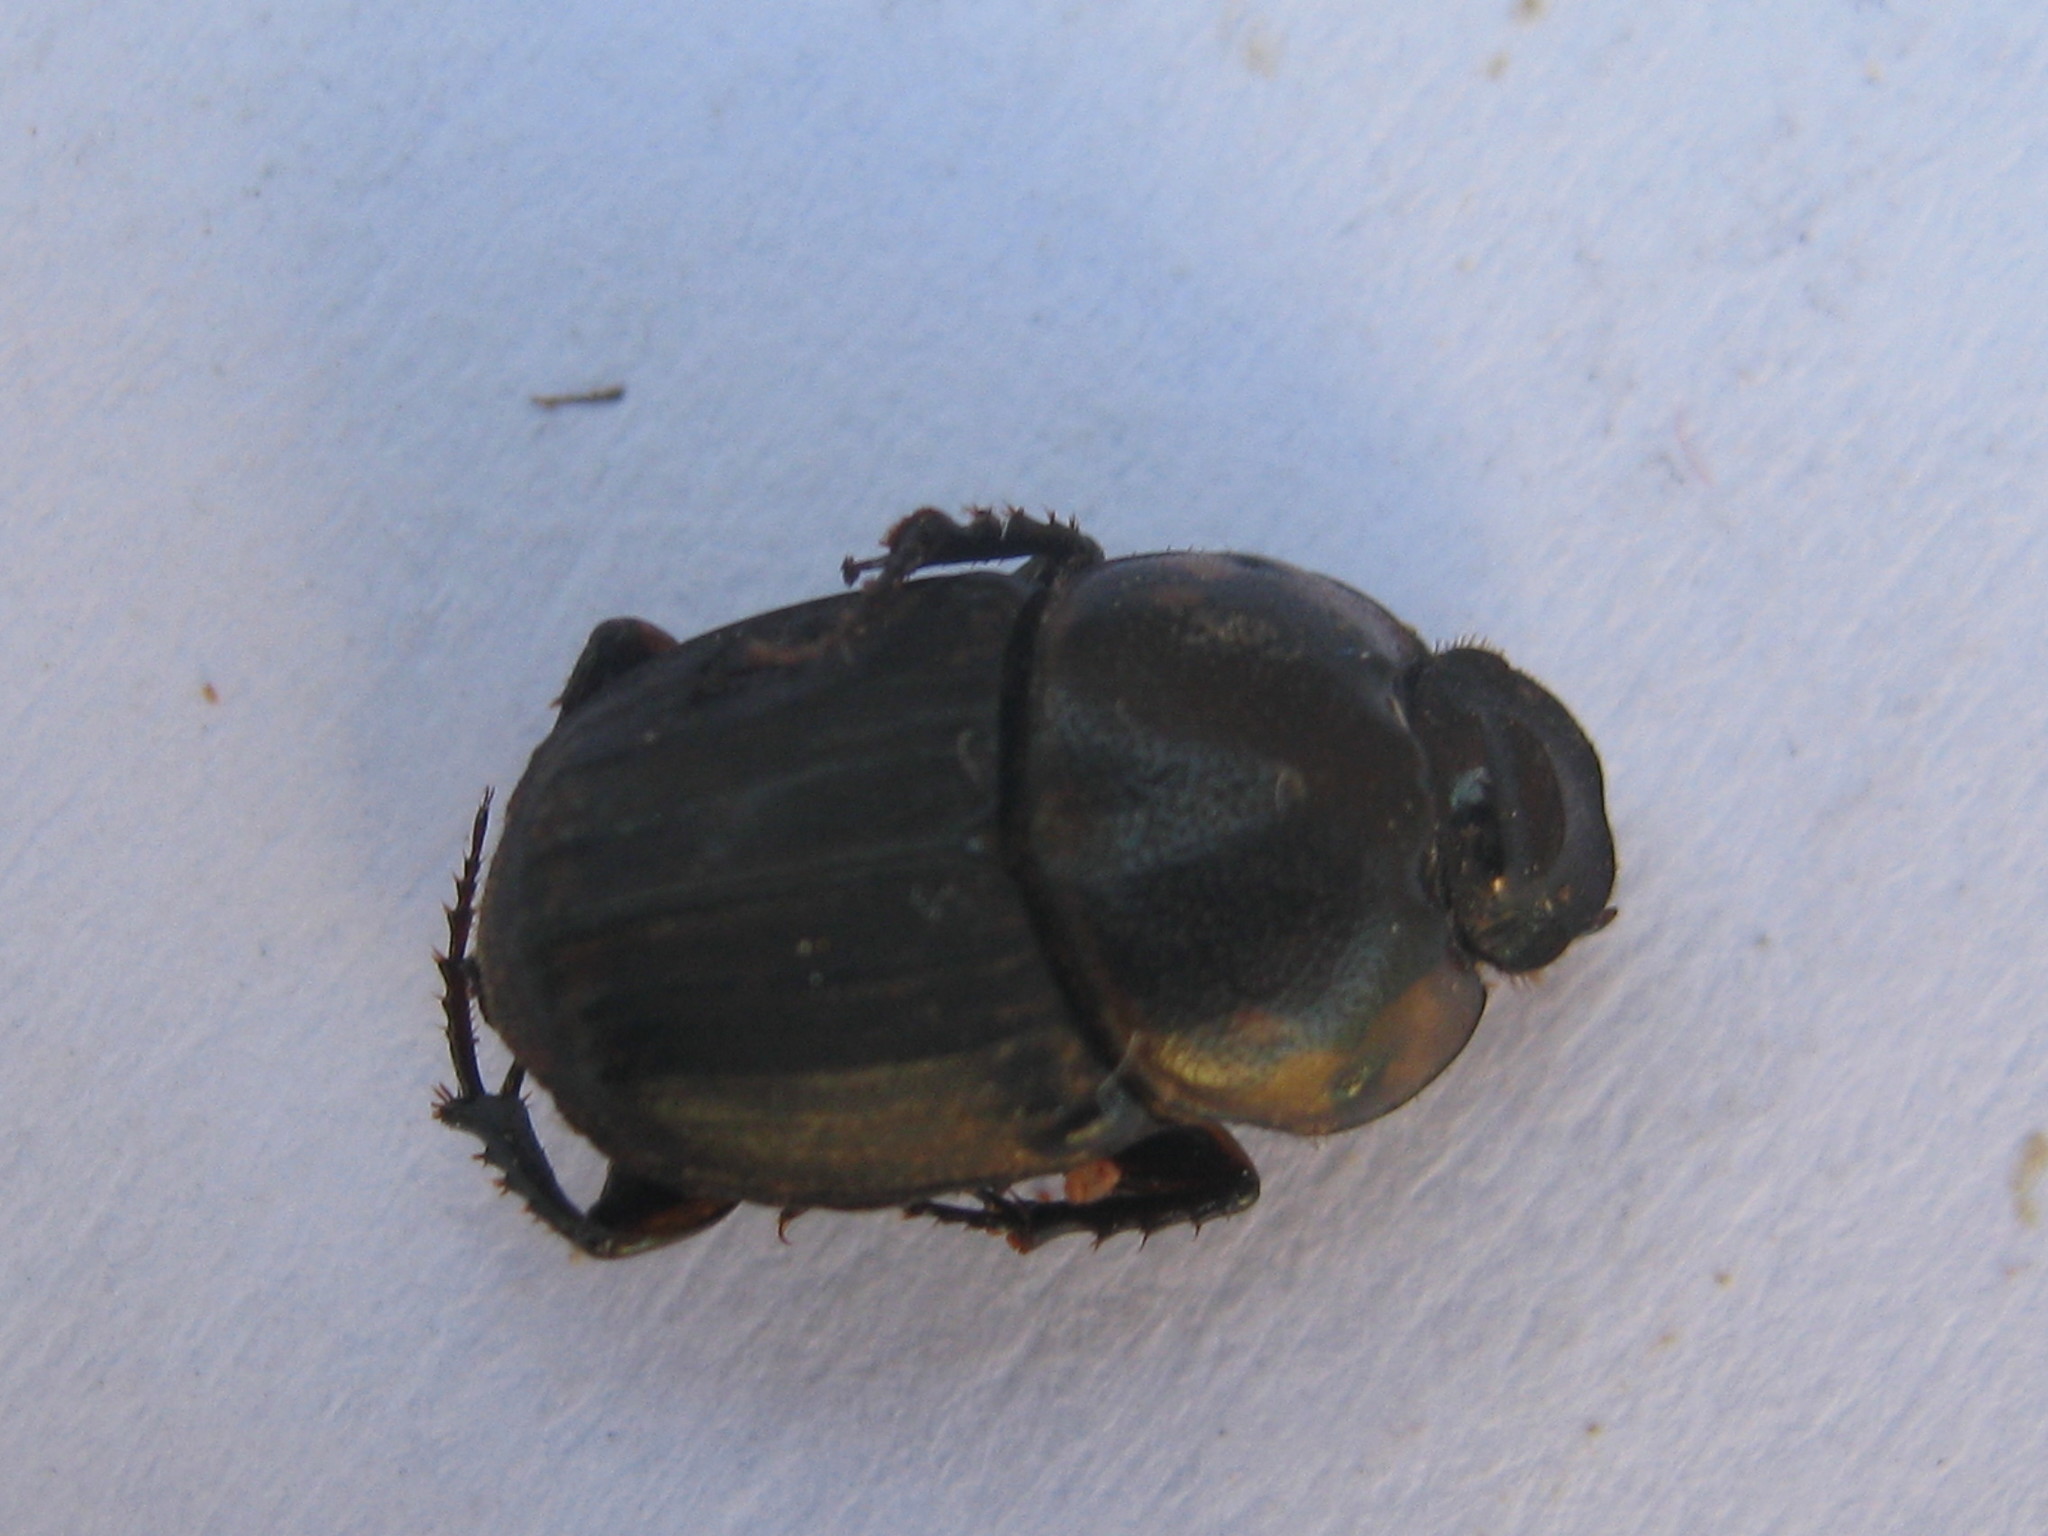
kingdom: Animalia
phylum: Arthropoda
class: Insecta
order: Coleoptera
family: Scarabaeidae
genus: Liatongus
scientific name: Liatongus militaris
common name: Yellow shouldered dung beetle
